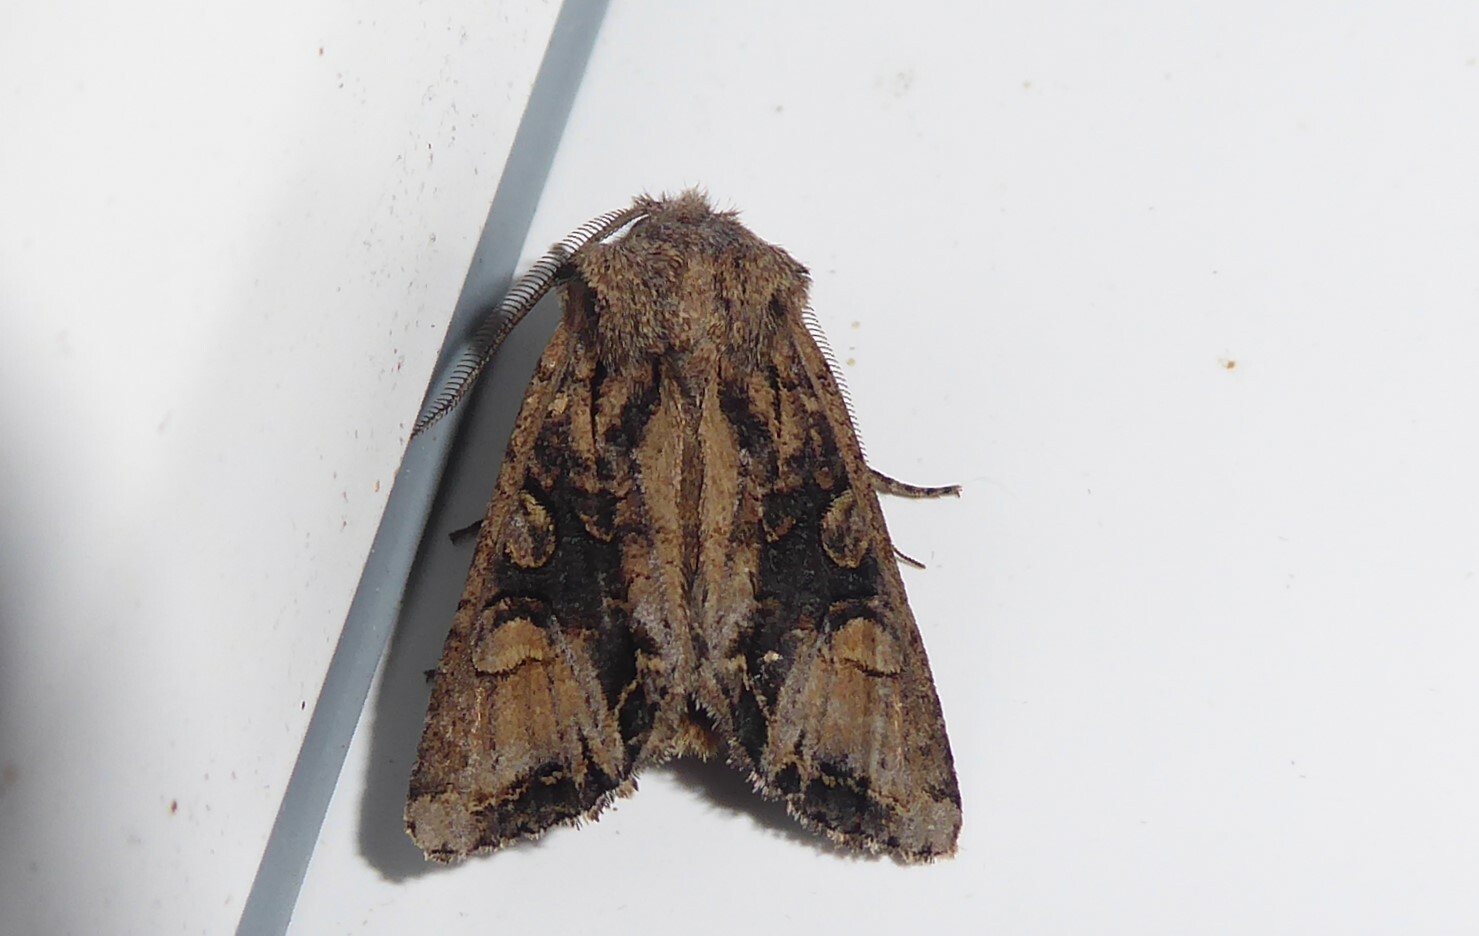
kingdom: Animalia
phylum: Arthropoda
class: Insecta
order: Lepidoptera
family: Noctuidae
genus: Ichneutica
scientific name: Ichneutica
